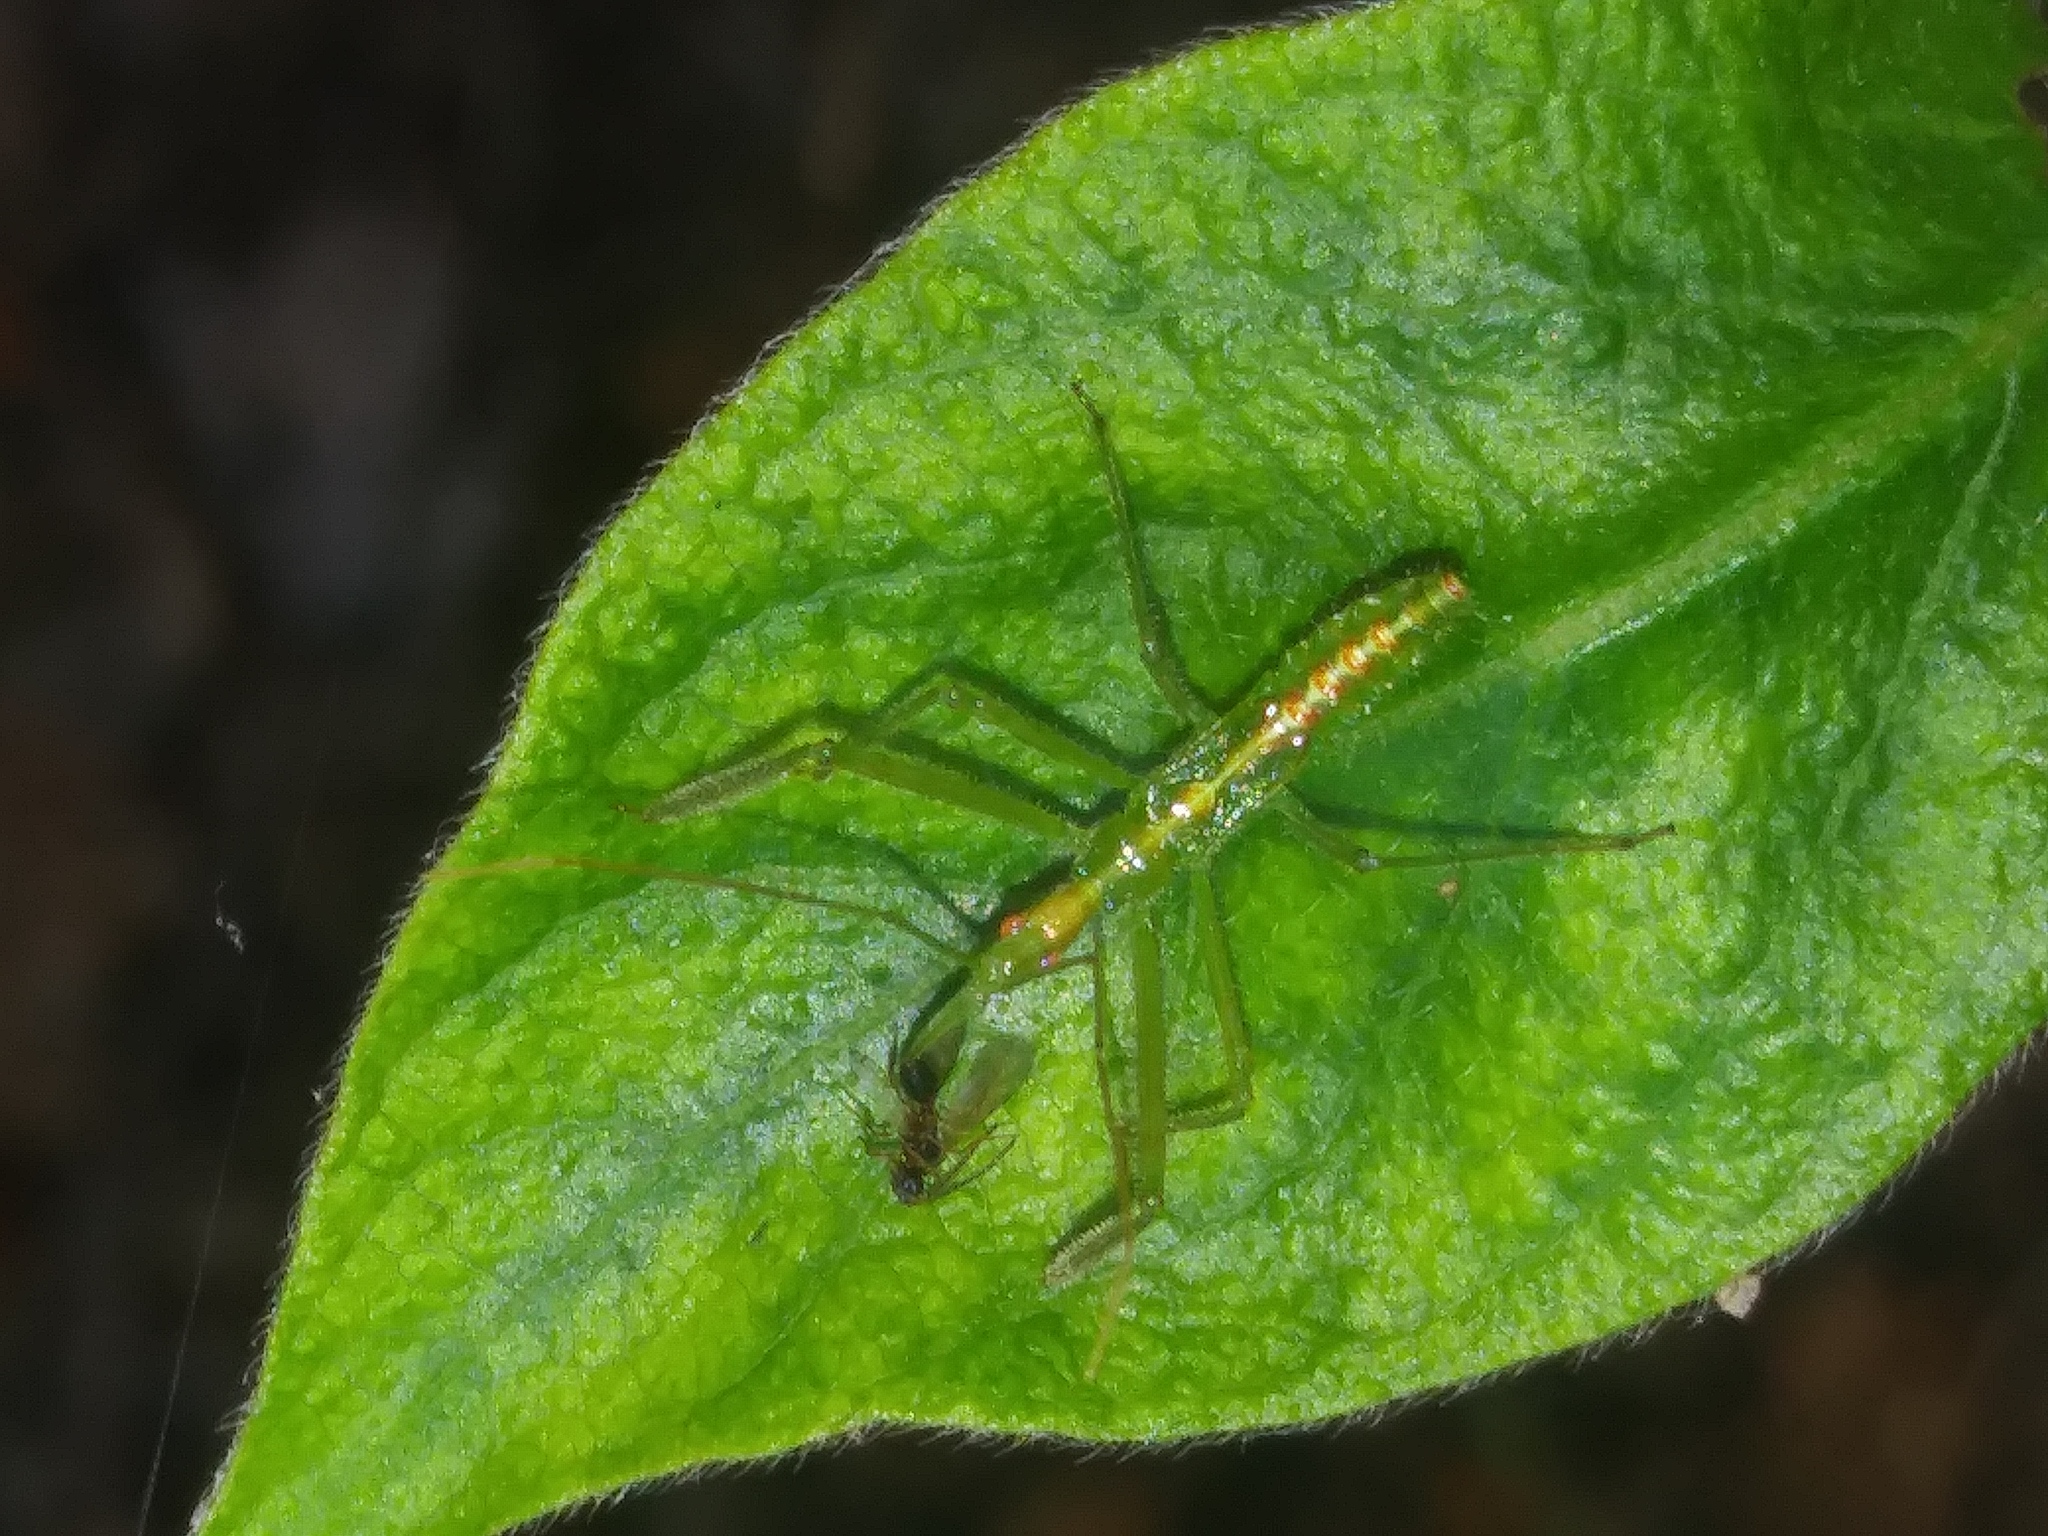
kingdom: Animalia
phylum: Arthropoda
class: Insecta
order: Hemiptera
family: Reduviidae
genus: Zelus
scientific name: Zelus luridus
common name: Pale green assassin bug
